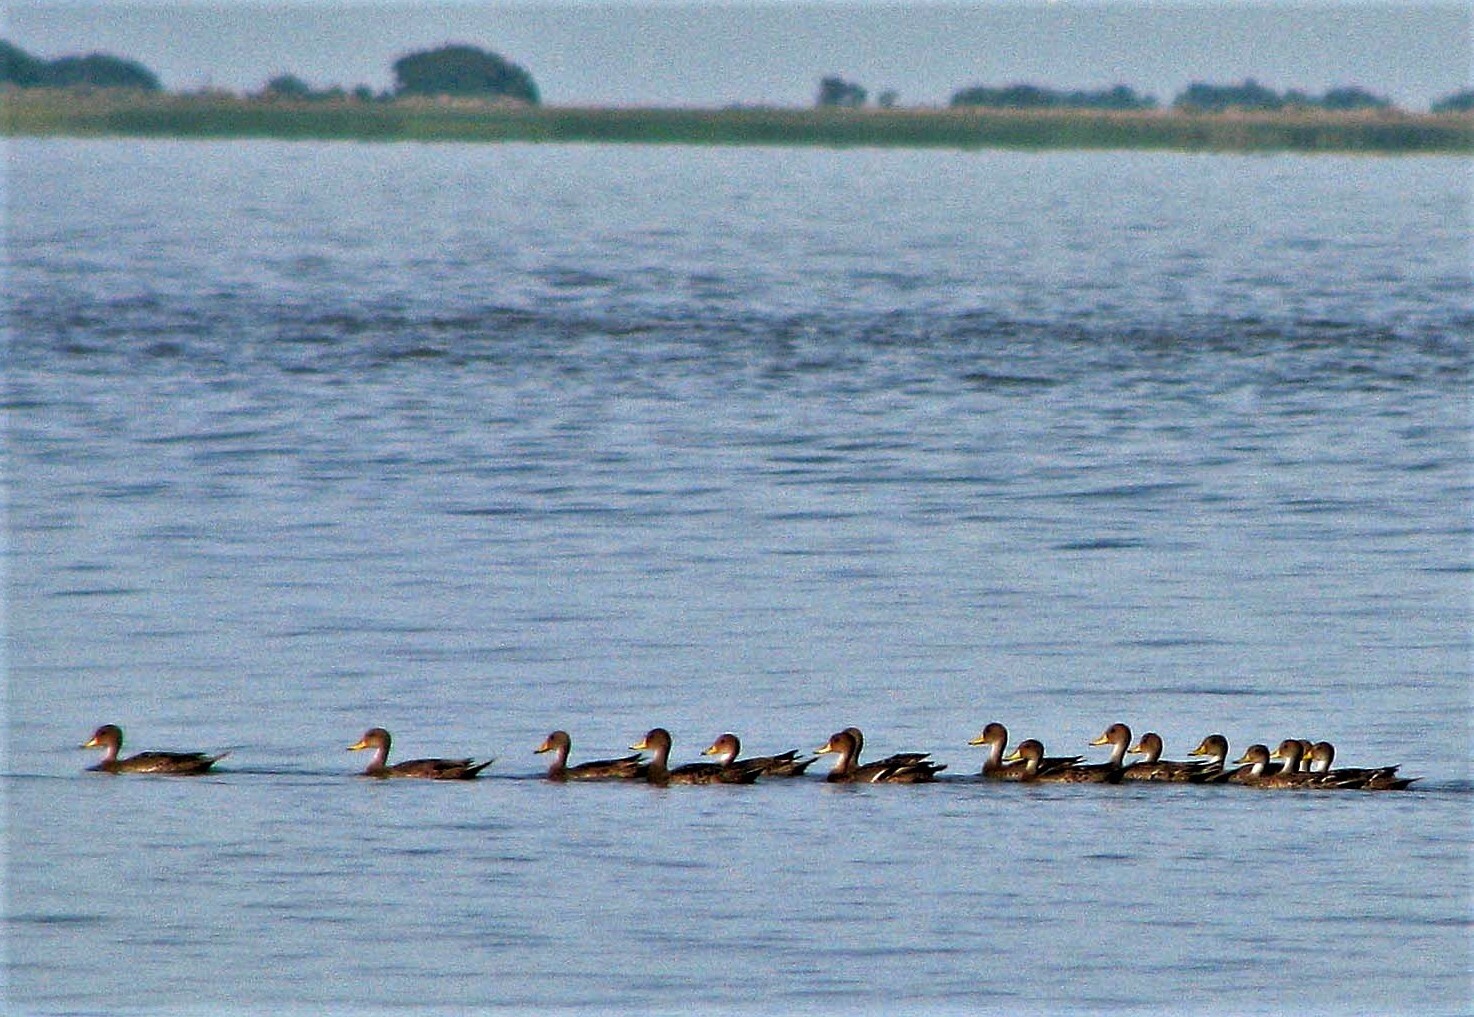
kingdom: Animalia
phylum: Chordata
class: Aves
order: Anseriformes
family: Anatidae
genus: Anas
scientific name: Anas georgica
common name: Yellow-billed pintail
